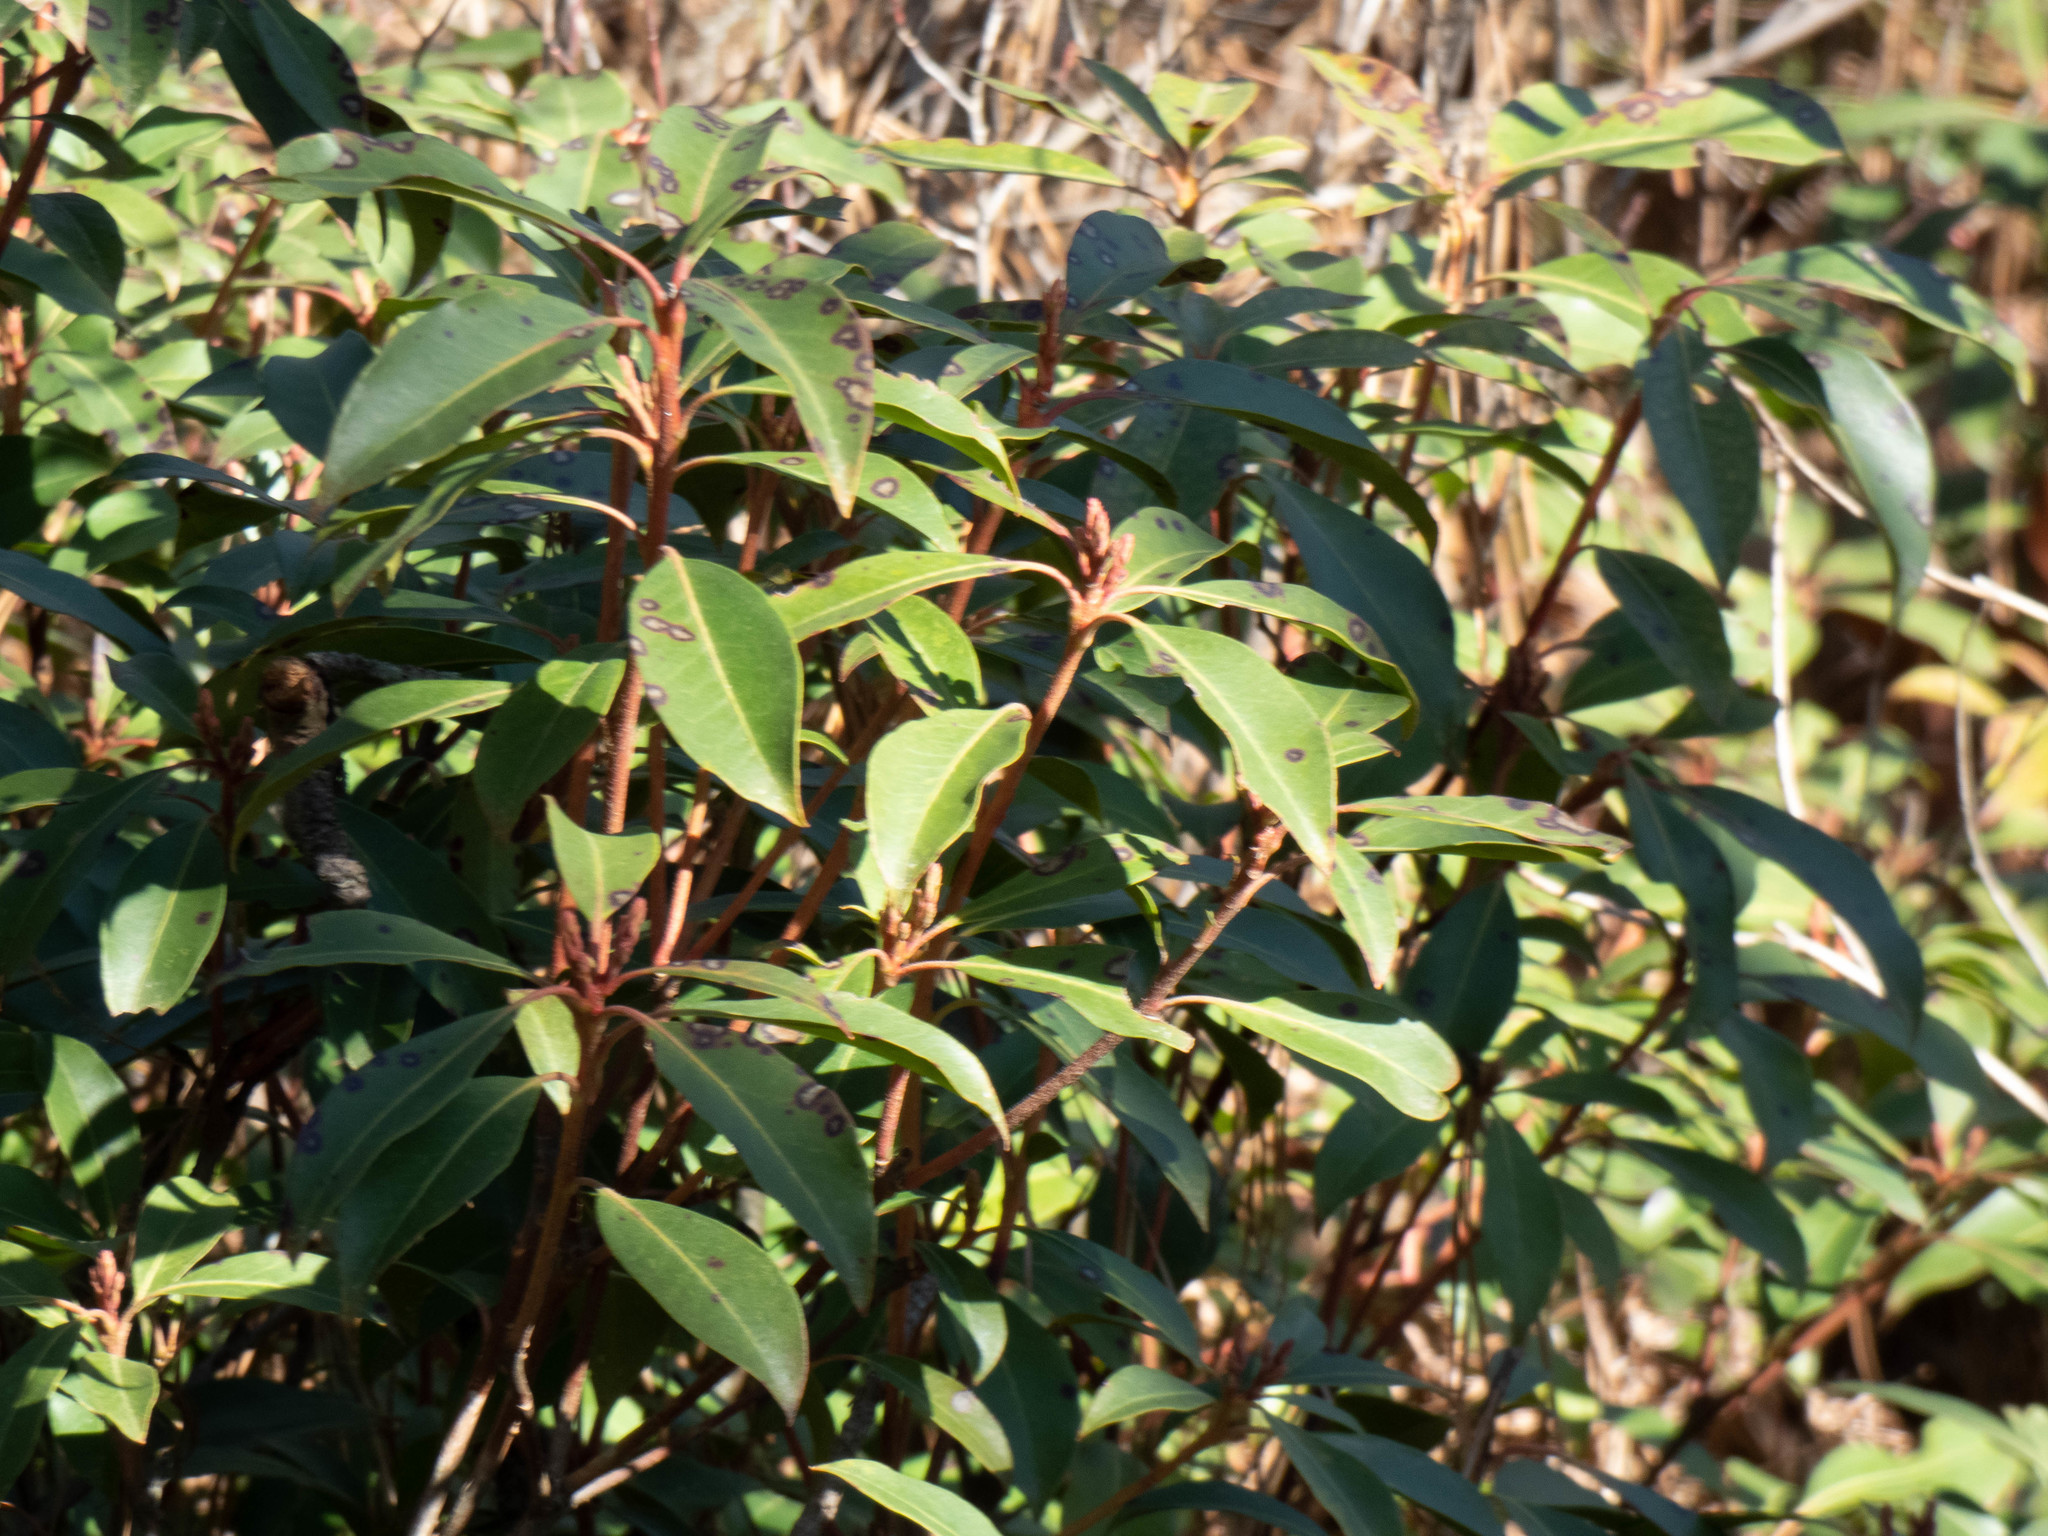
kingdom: Plantae
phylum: Tracheophyta
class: Magnoliopsida
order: Ericales
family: Ericaceae
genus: Kalmia
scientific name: Kalmia latifolia
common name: Mountain-laurel
